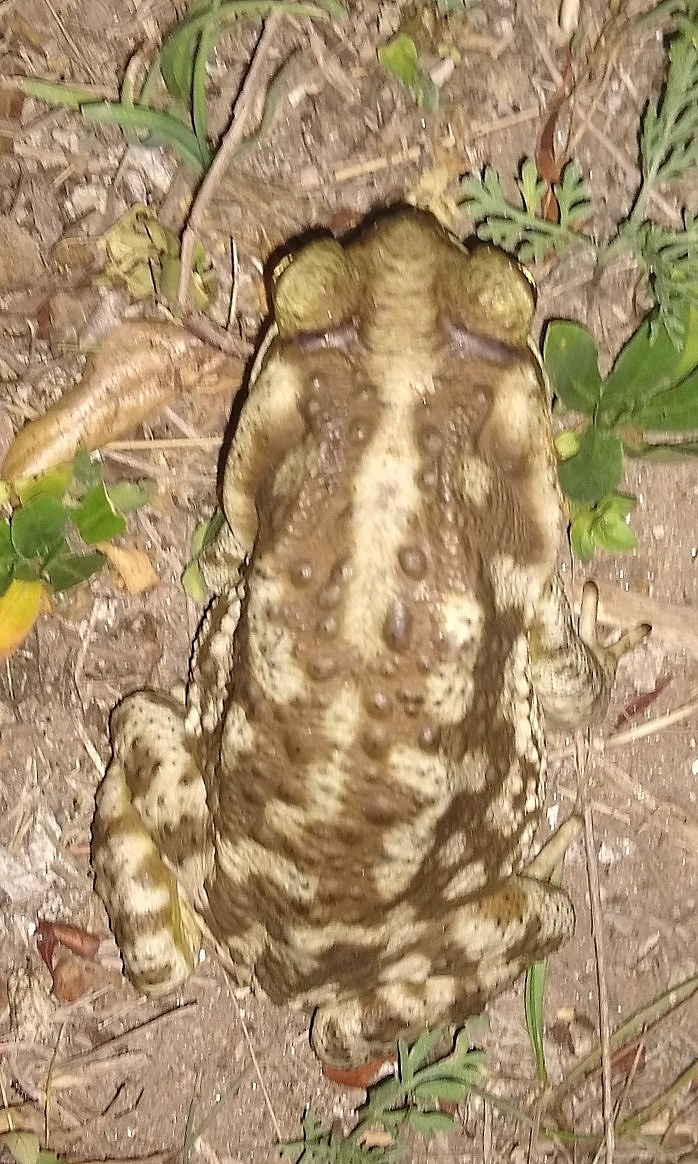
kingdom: Animalia
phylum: Chordata
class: Amphibia
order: Anura
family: Bufonidae
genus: Rhinella
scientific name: Rhinella arenarum
